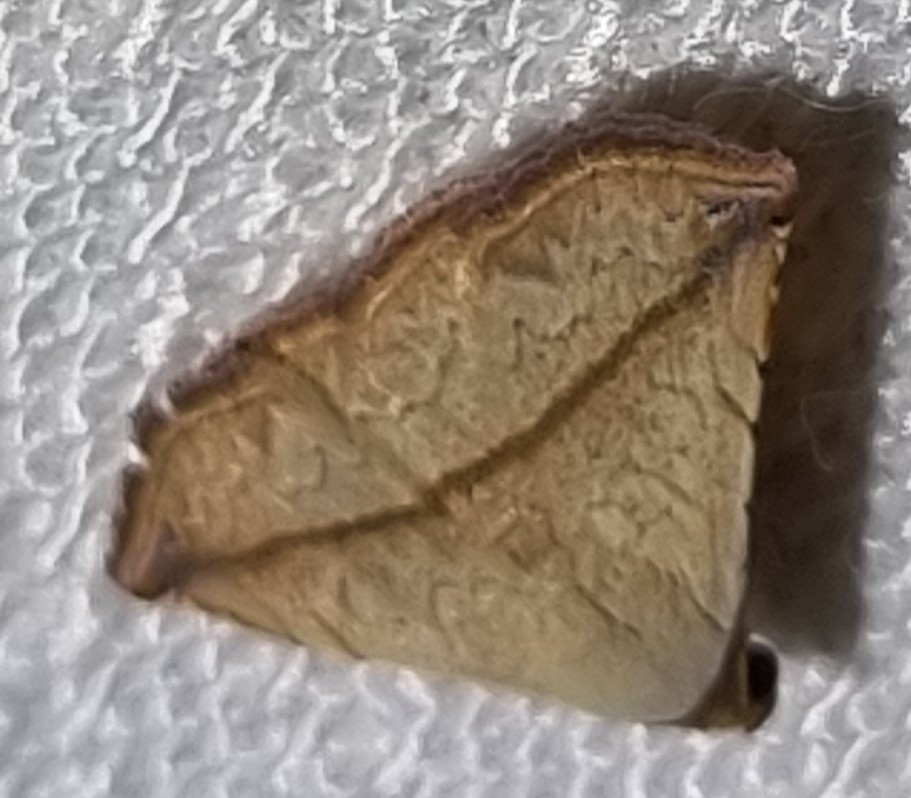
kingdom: Animalia
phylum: Arthropoda
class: Insecta
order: Lepidoptera
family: Noctuidae
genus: Eublemma
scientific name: Eublemma perversicolor
